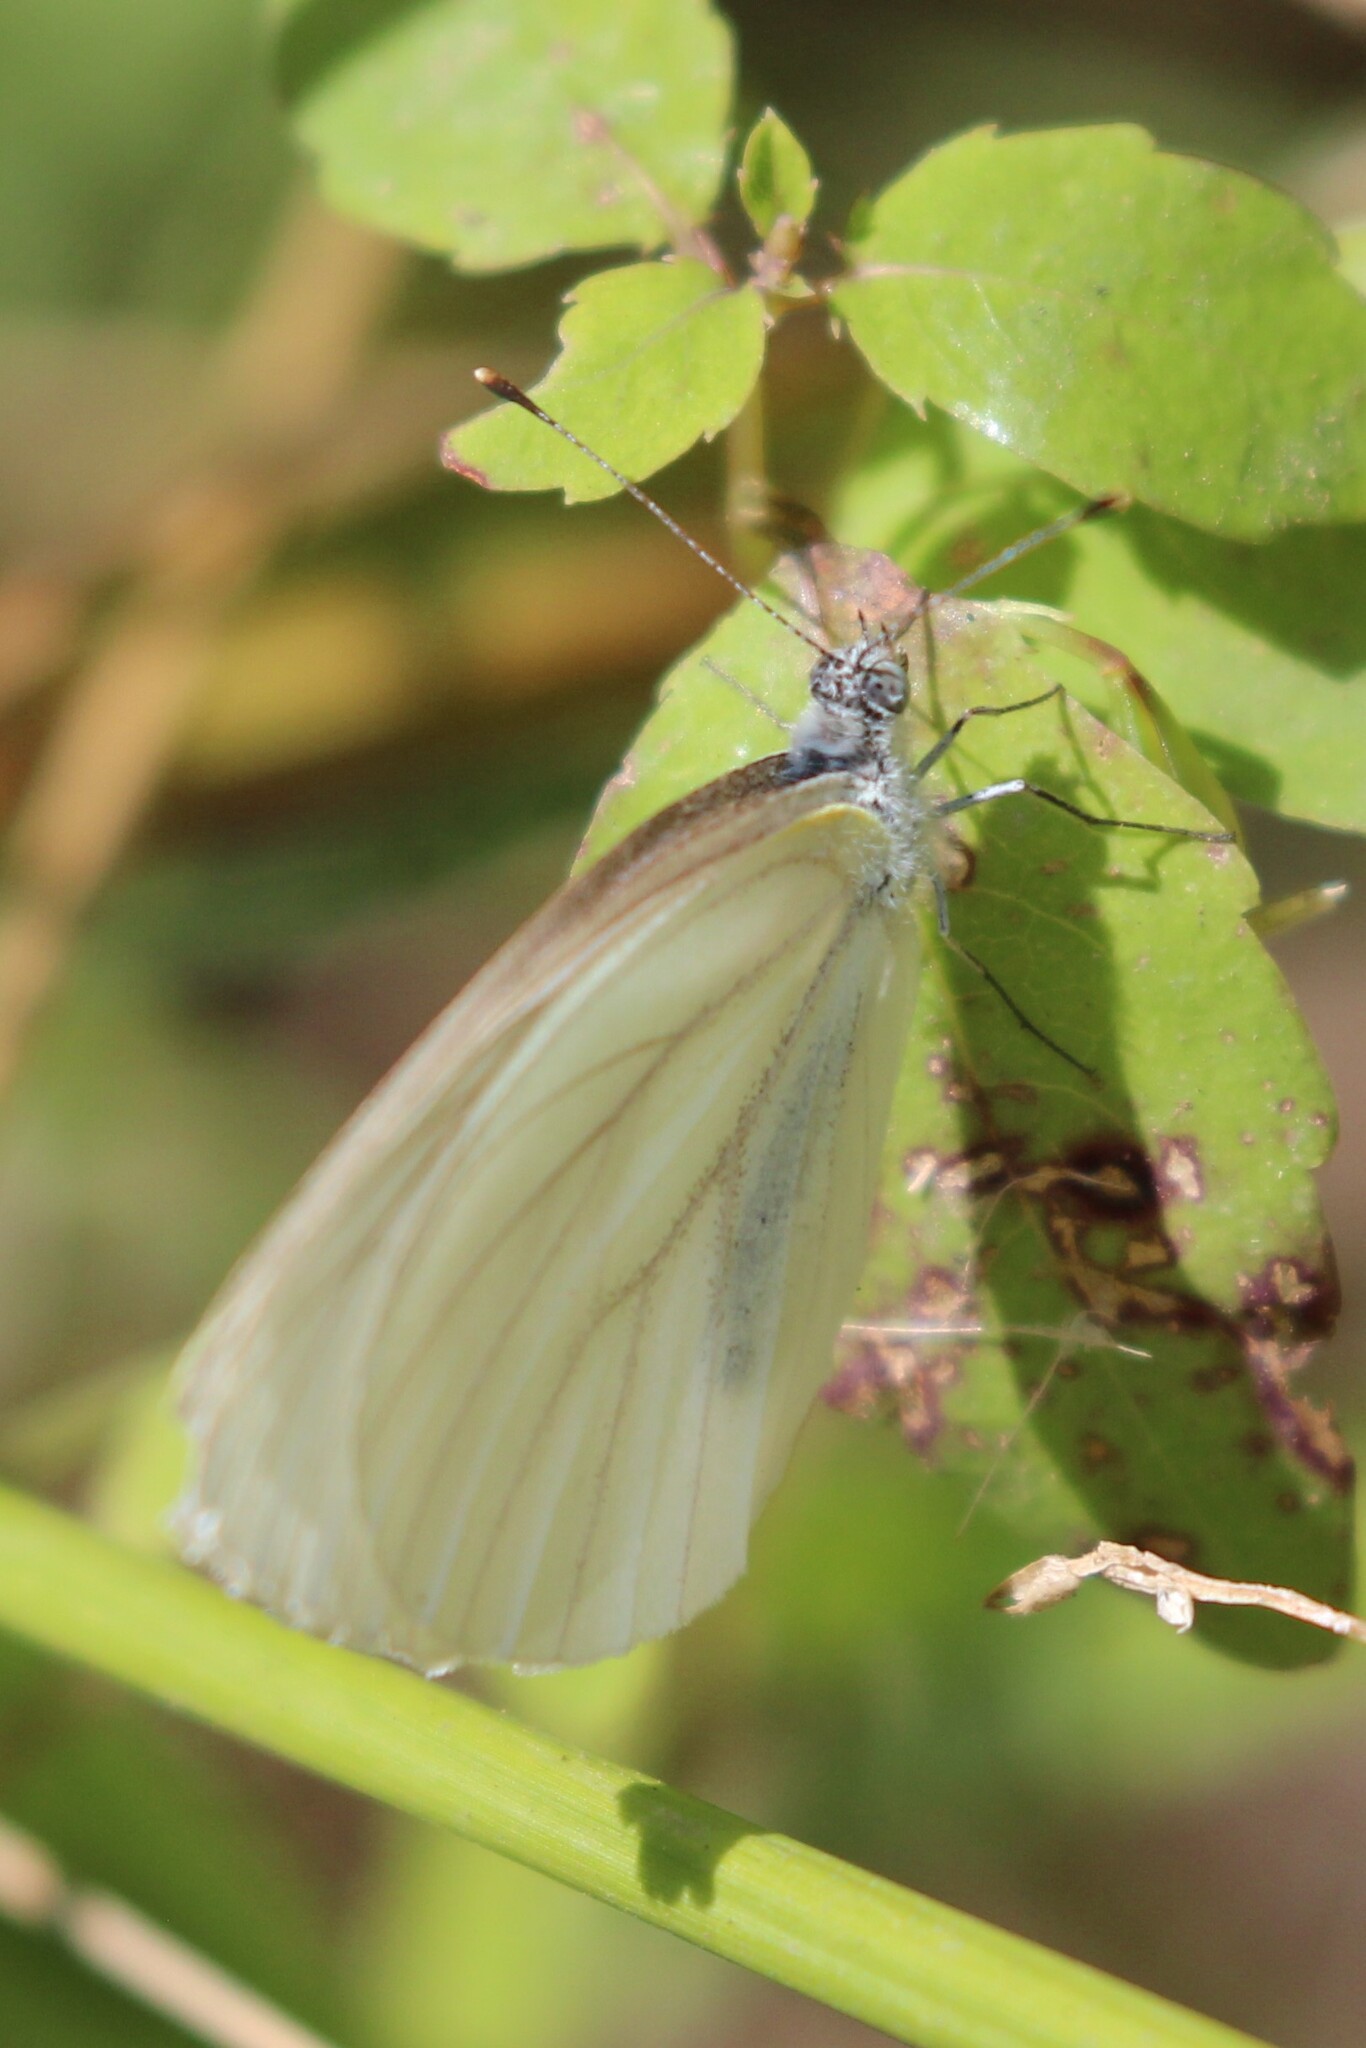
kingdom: Animalia
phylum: Arthropoda
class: Insecta
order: Lepidoptera
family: Pieridae
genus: Pieris
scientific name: Pieris oleracea
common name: Mustard white
